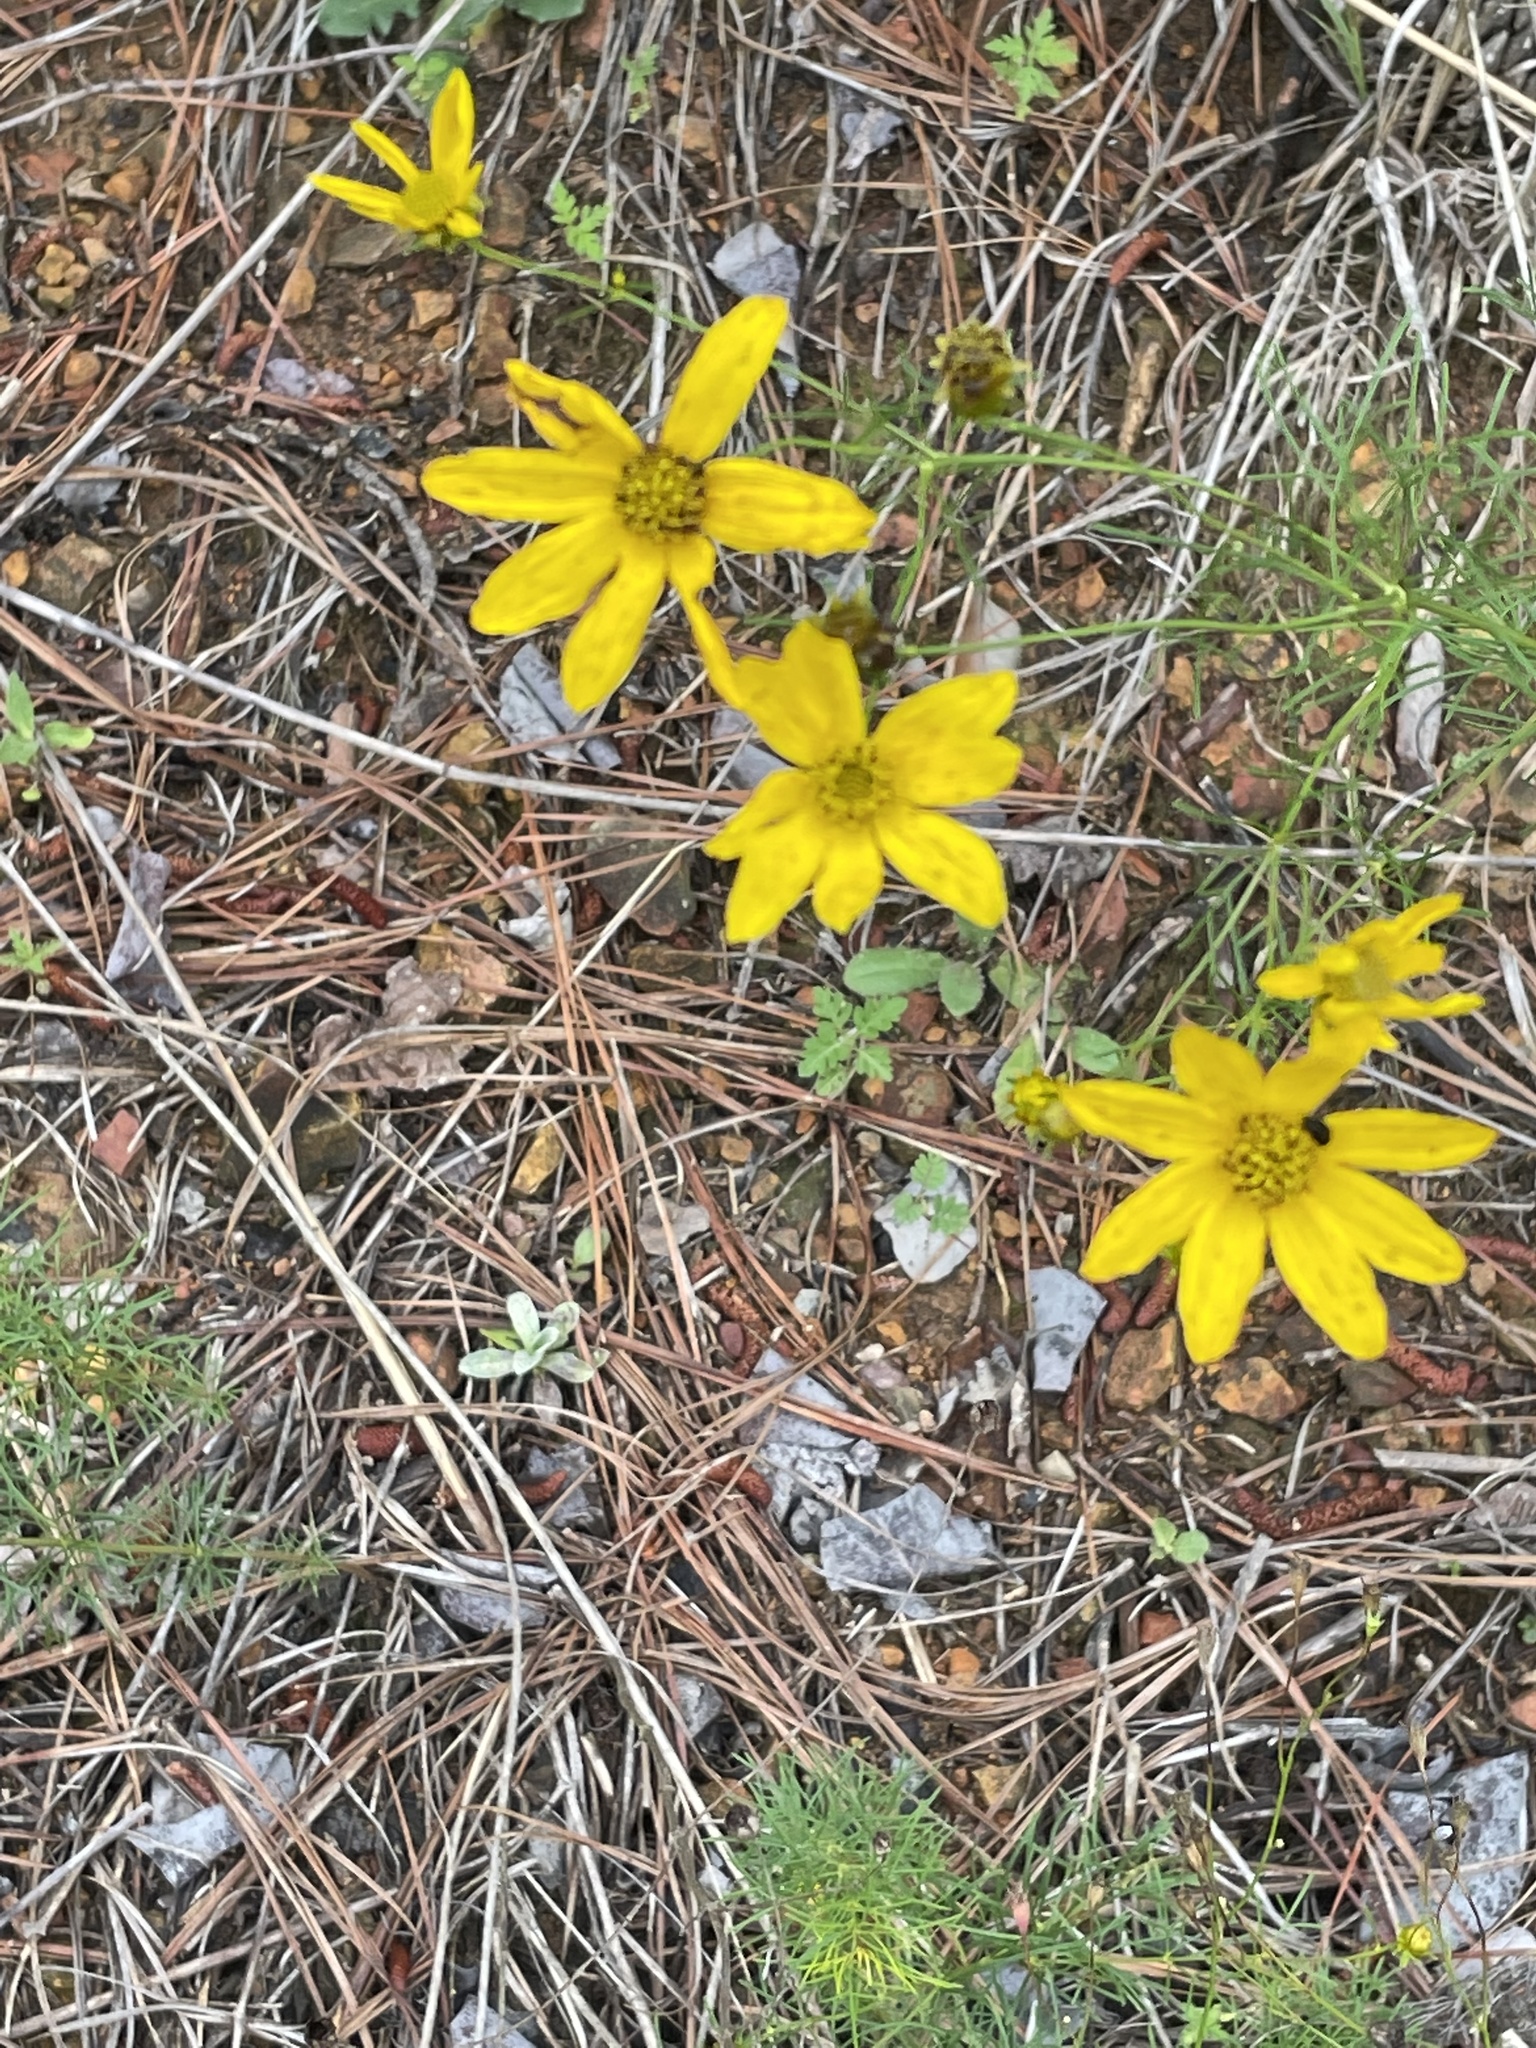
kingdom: Plantae
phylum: Tracheophyta
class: Magnoliopsida
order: Asterales
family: Asteraceae
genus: Coreopsis
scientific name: Coreopsis verticillata
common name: Whorled tickseed
